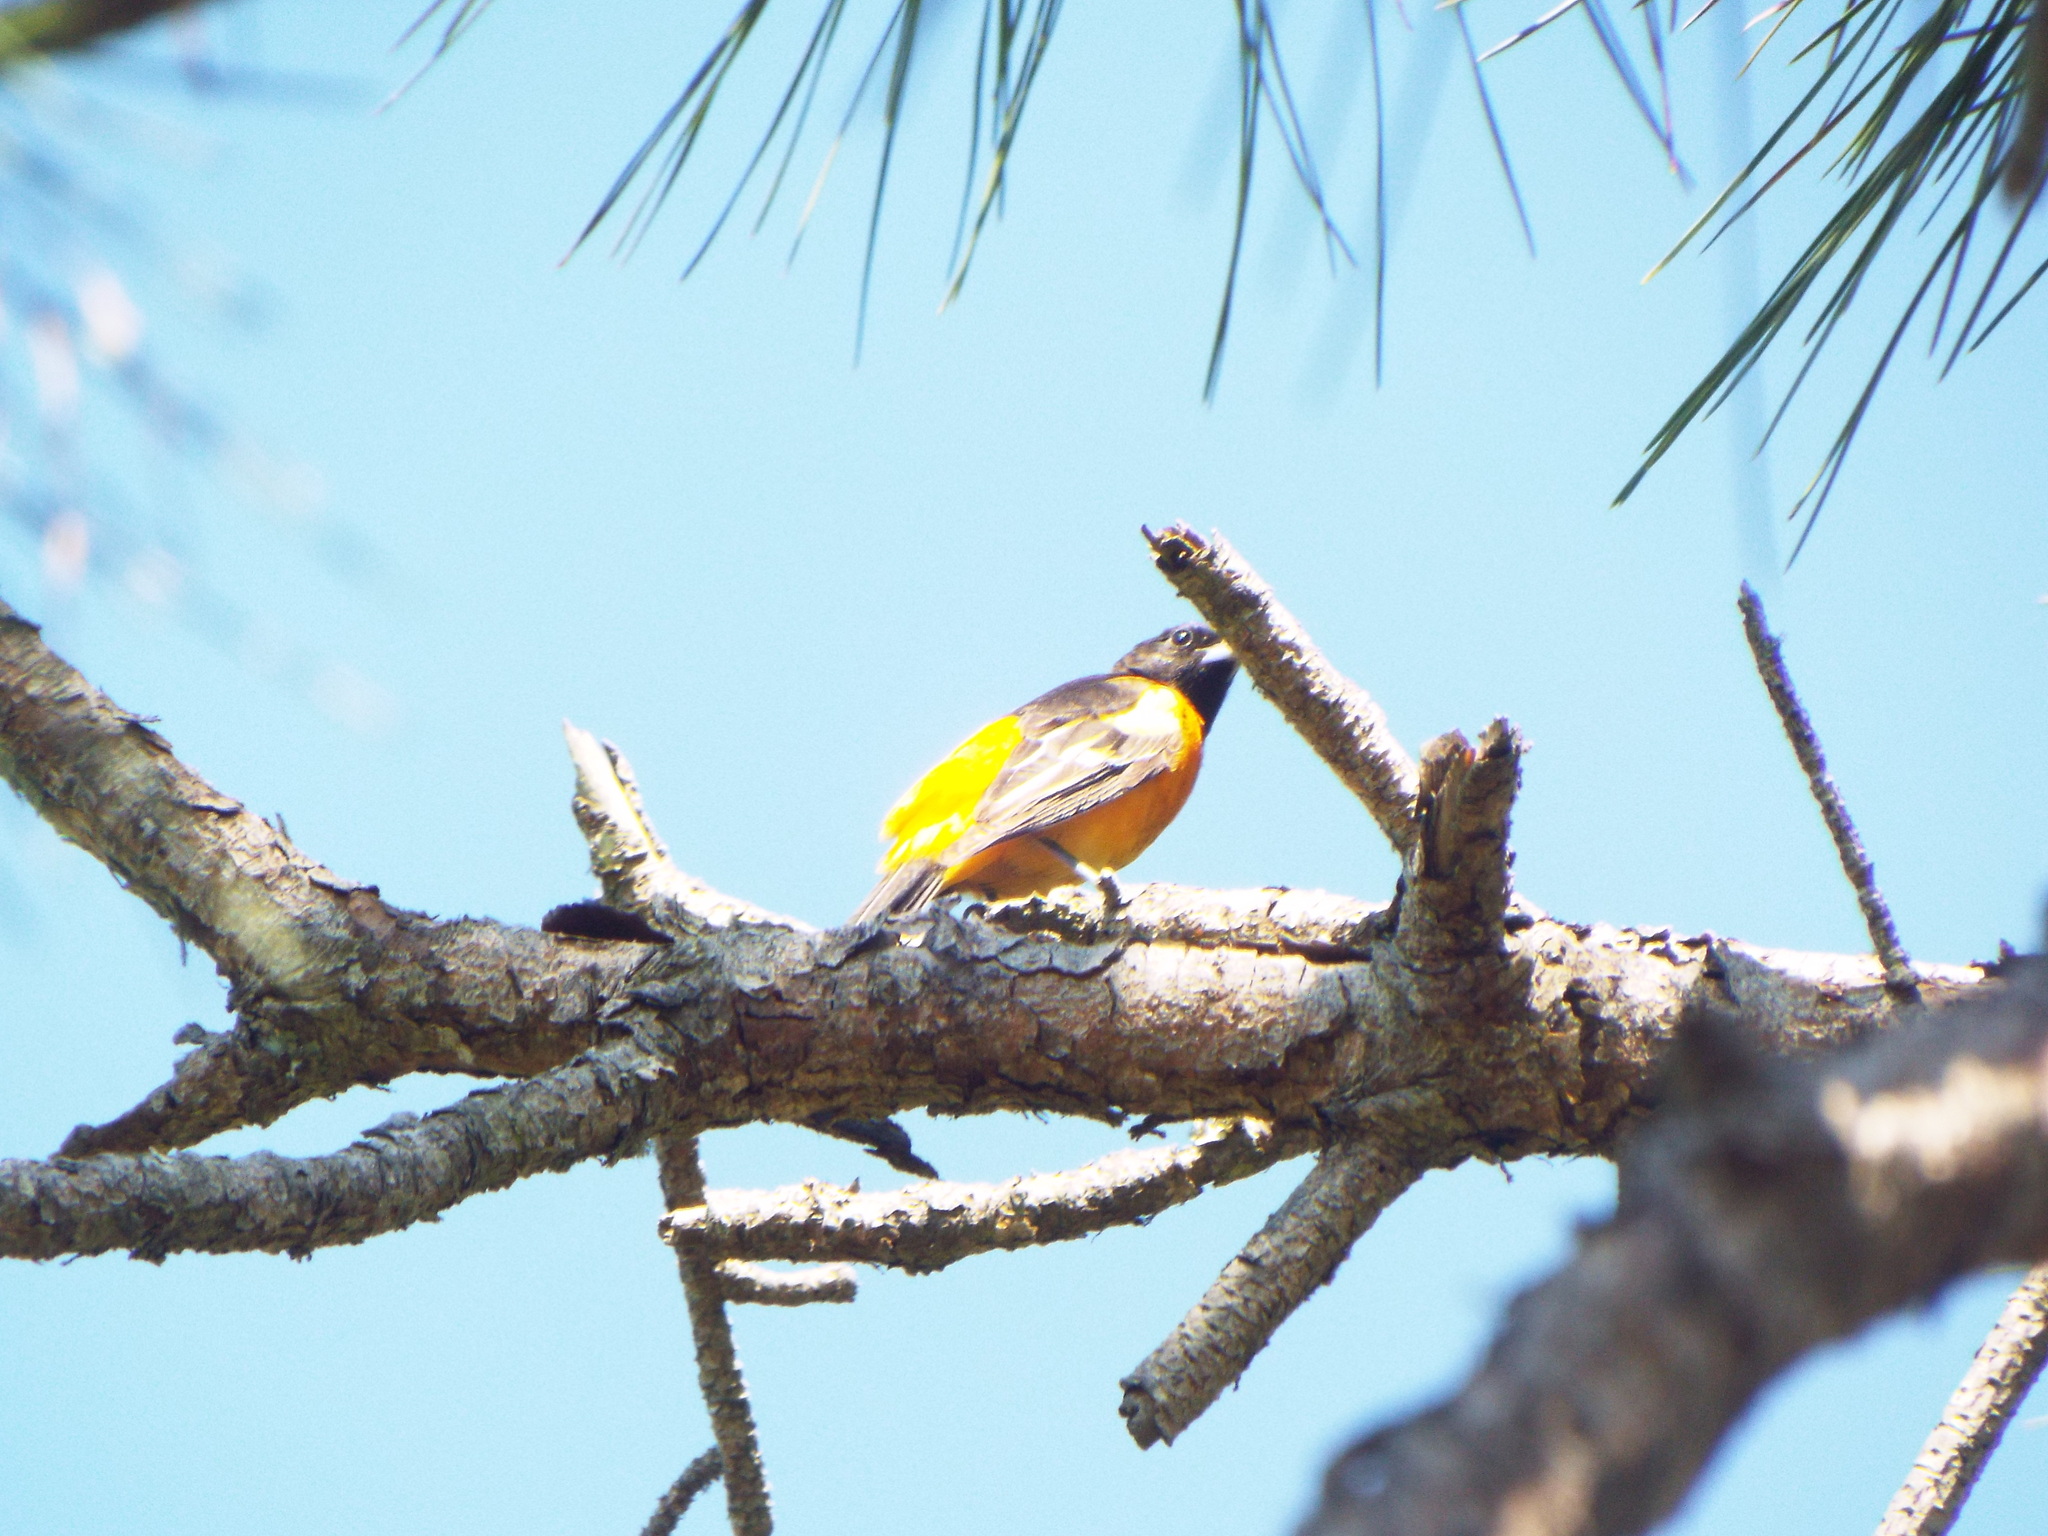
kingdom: Animalia
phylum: Chordata
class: Aves
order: Passeriformes
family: Icteridae
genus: Icterus
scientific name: Icterus galbula
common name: Baltimore oriole
